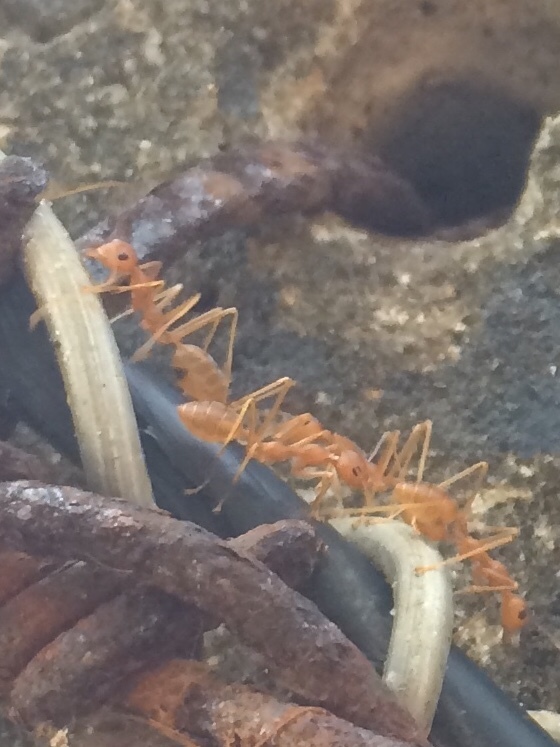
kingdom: Animalia
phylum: Arthropoda
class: Insecta
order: Hymenoptera
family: Formicidae
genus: Oecophylla
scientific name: Oecophylla smaragdina
